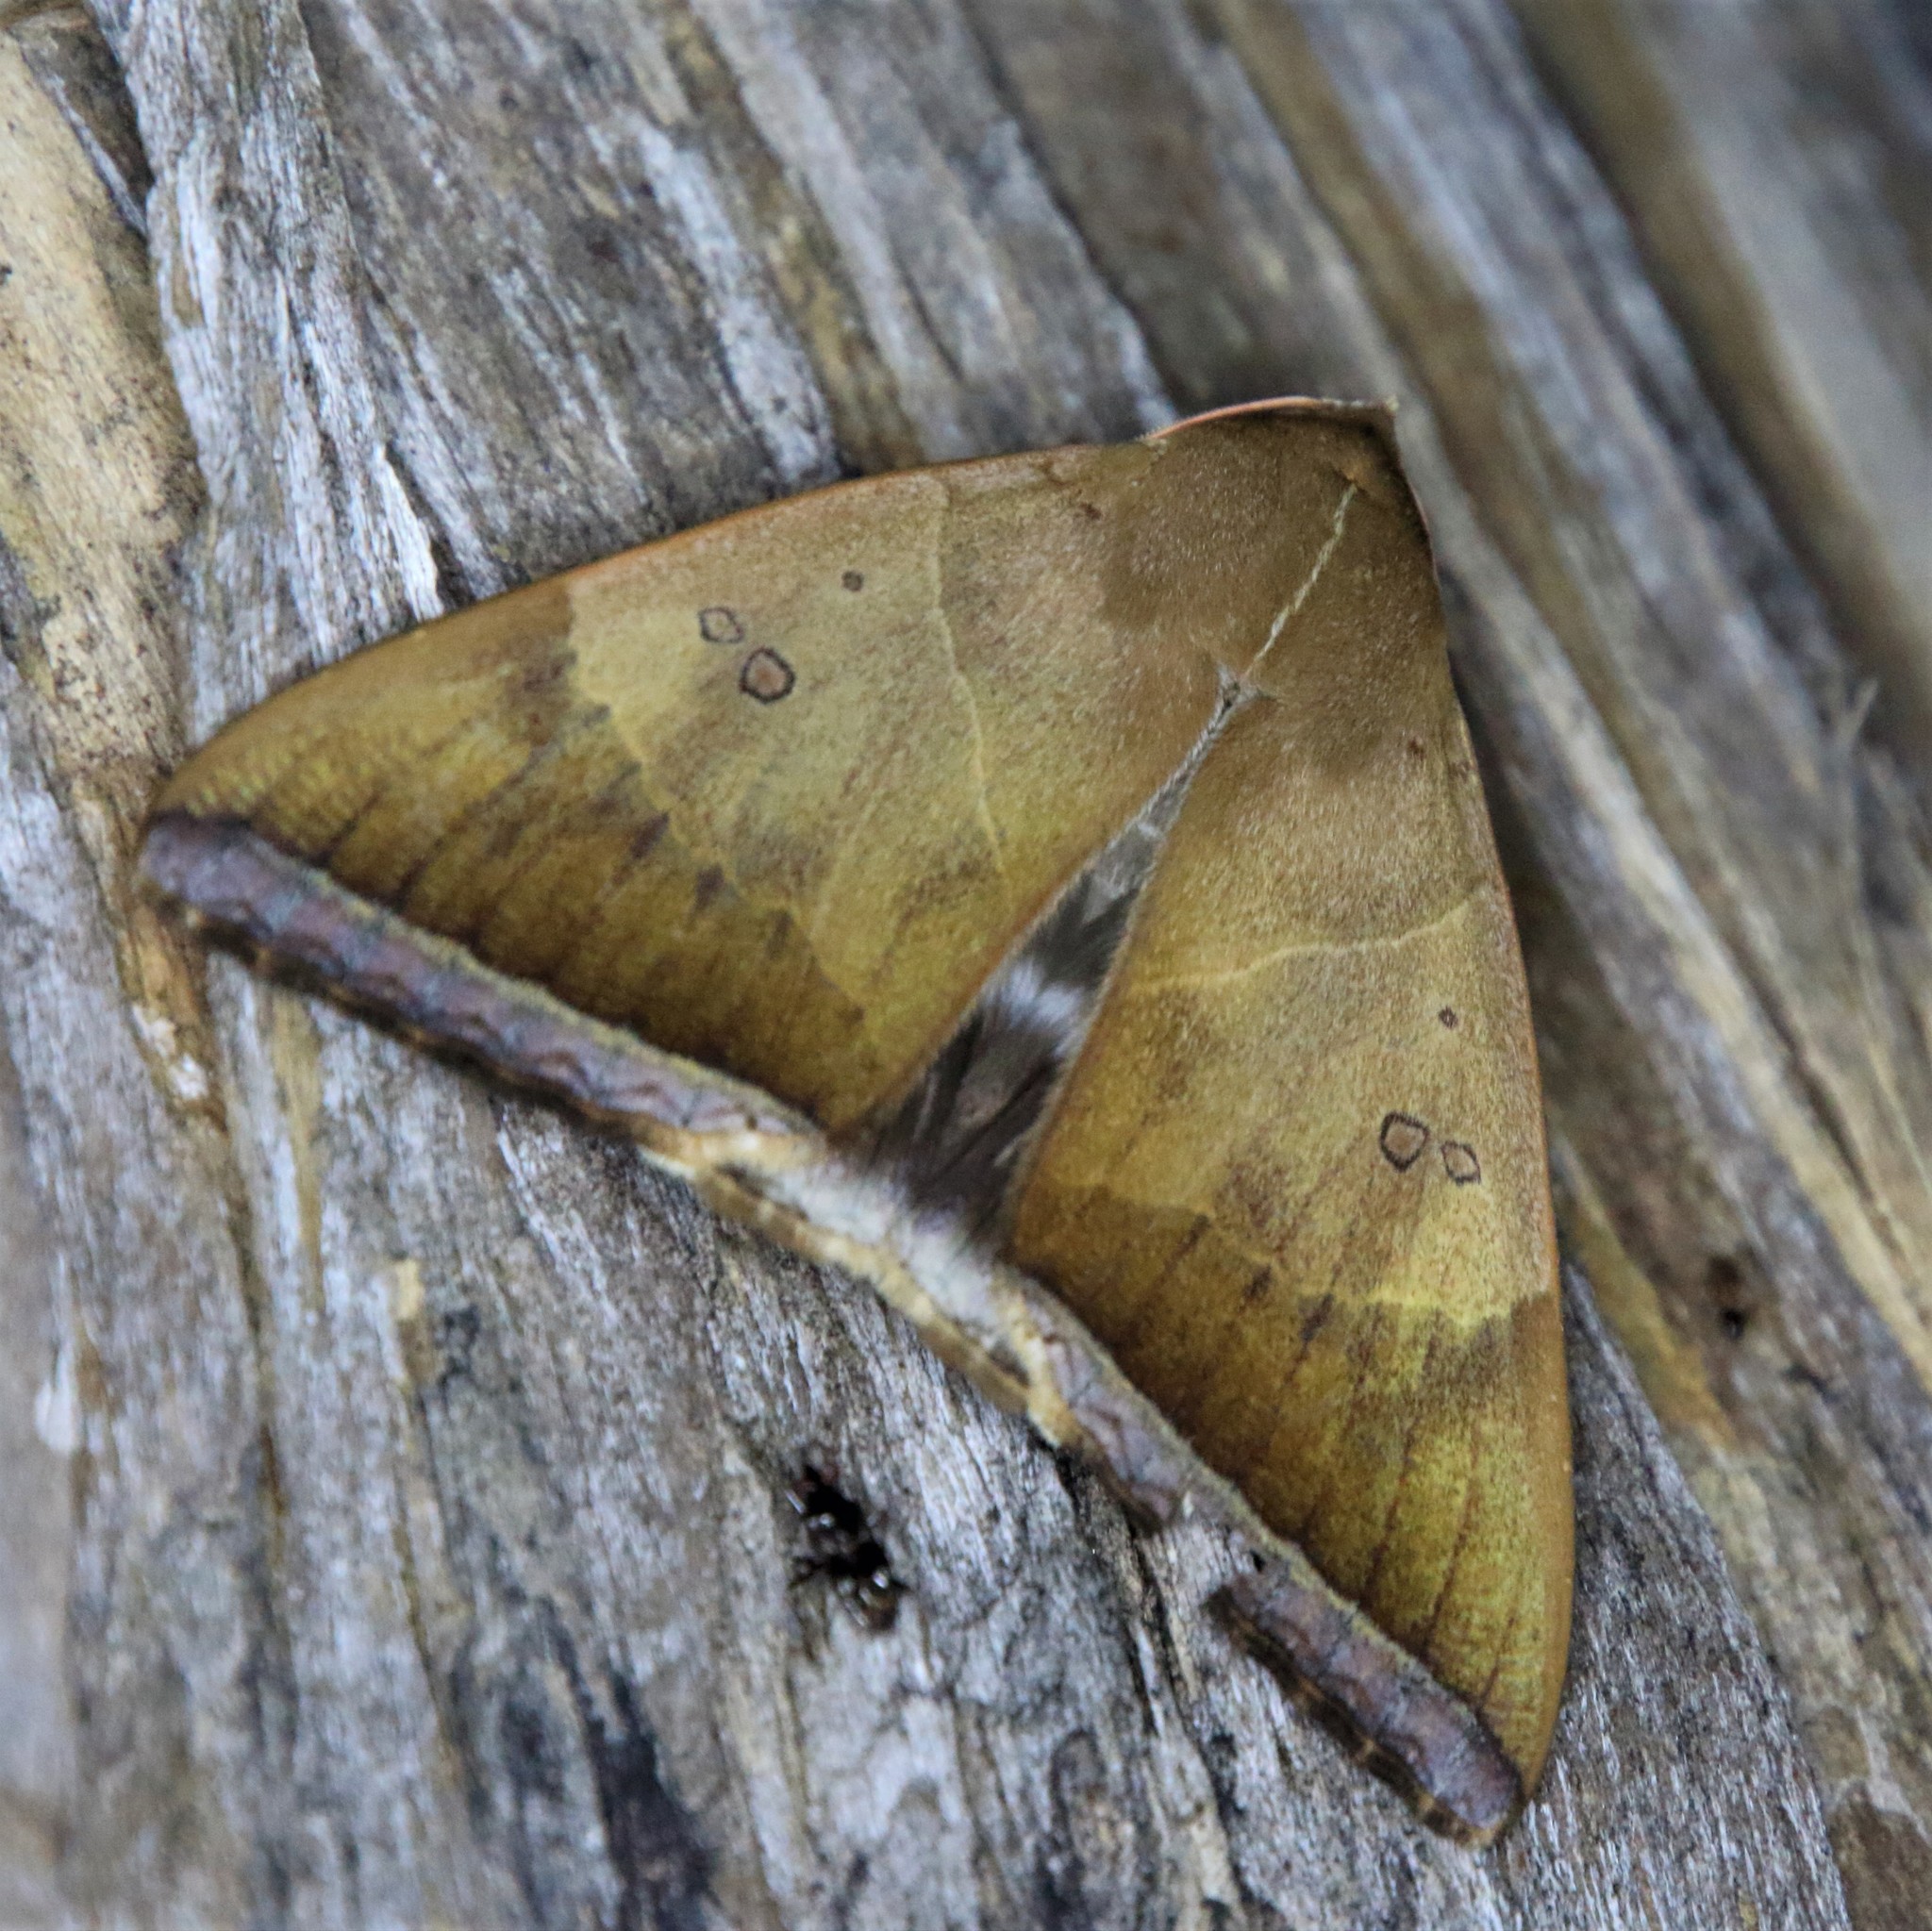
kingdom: Animalia
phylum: Arthropoda
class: Insecta
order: Lepidoptera
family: Erebidae
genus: Artena
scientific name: Artena dotata
